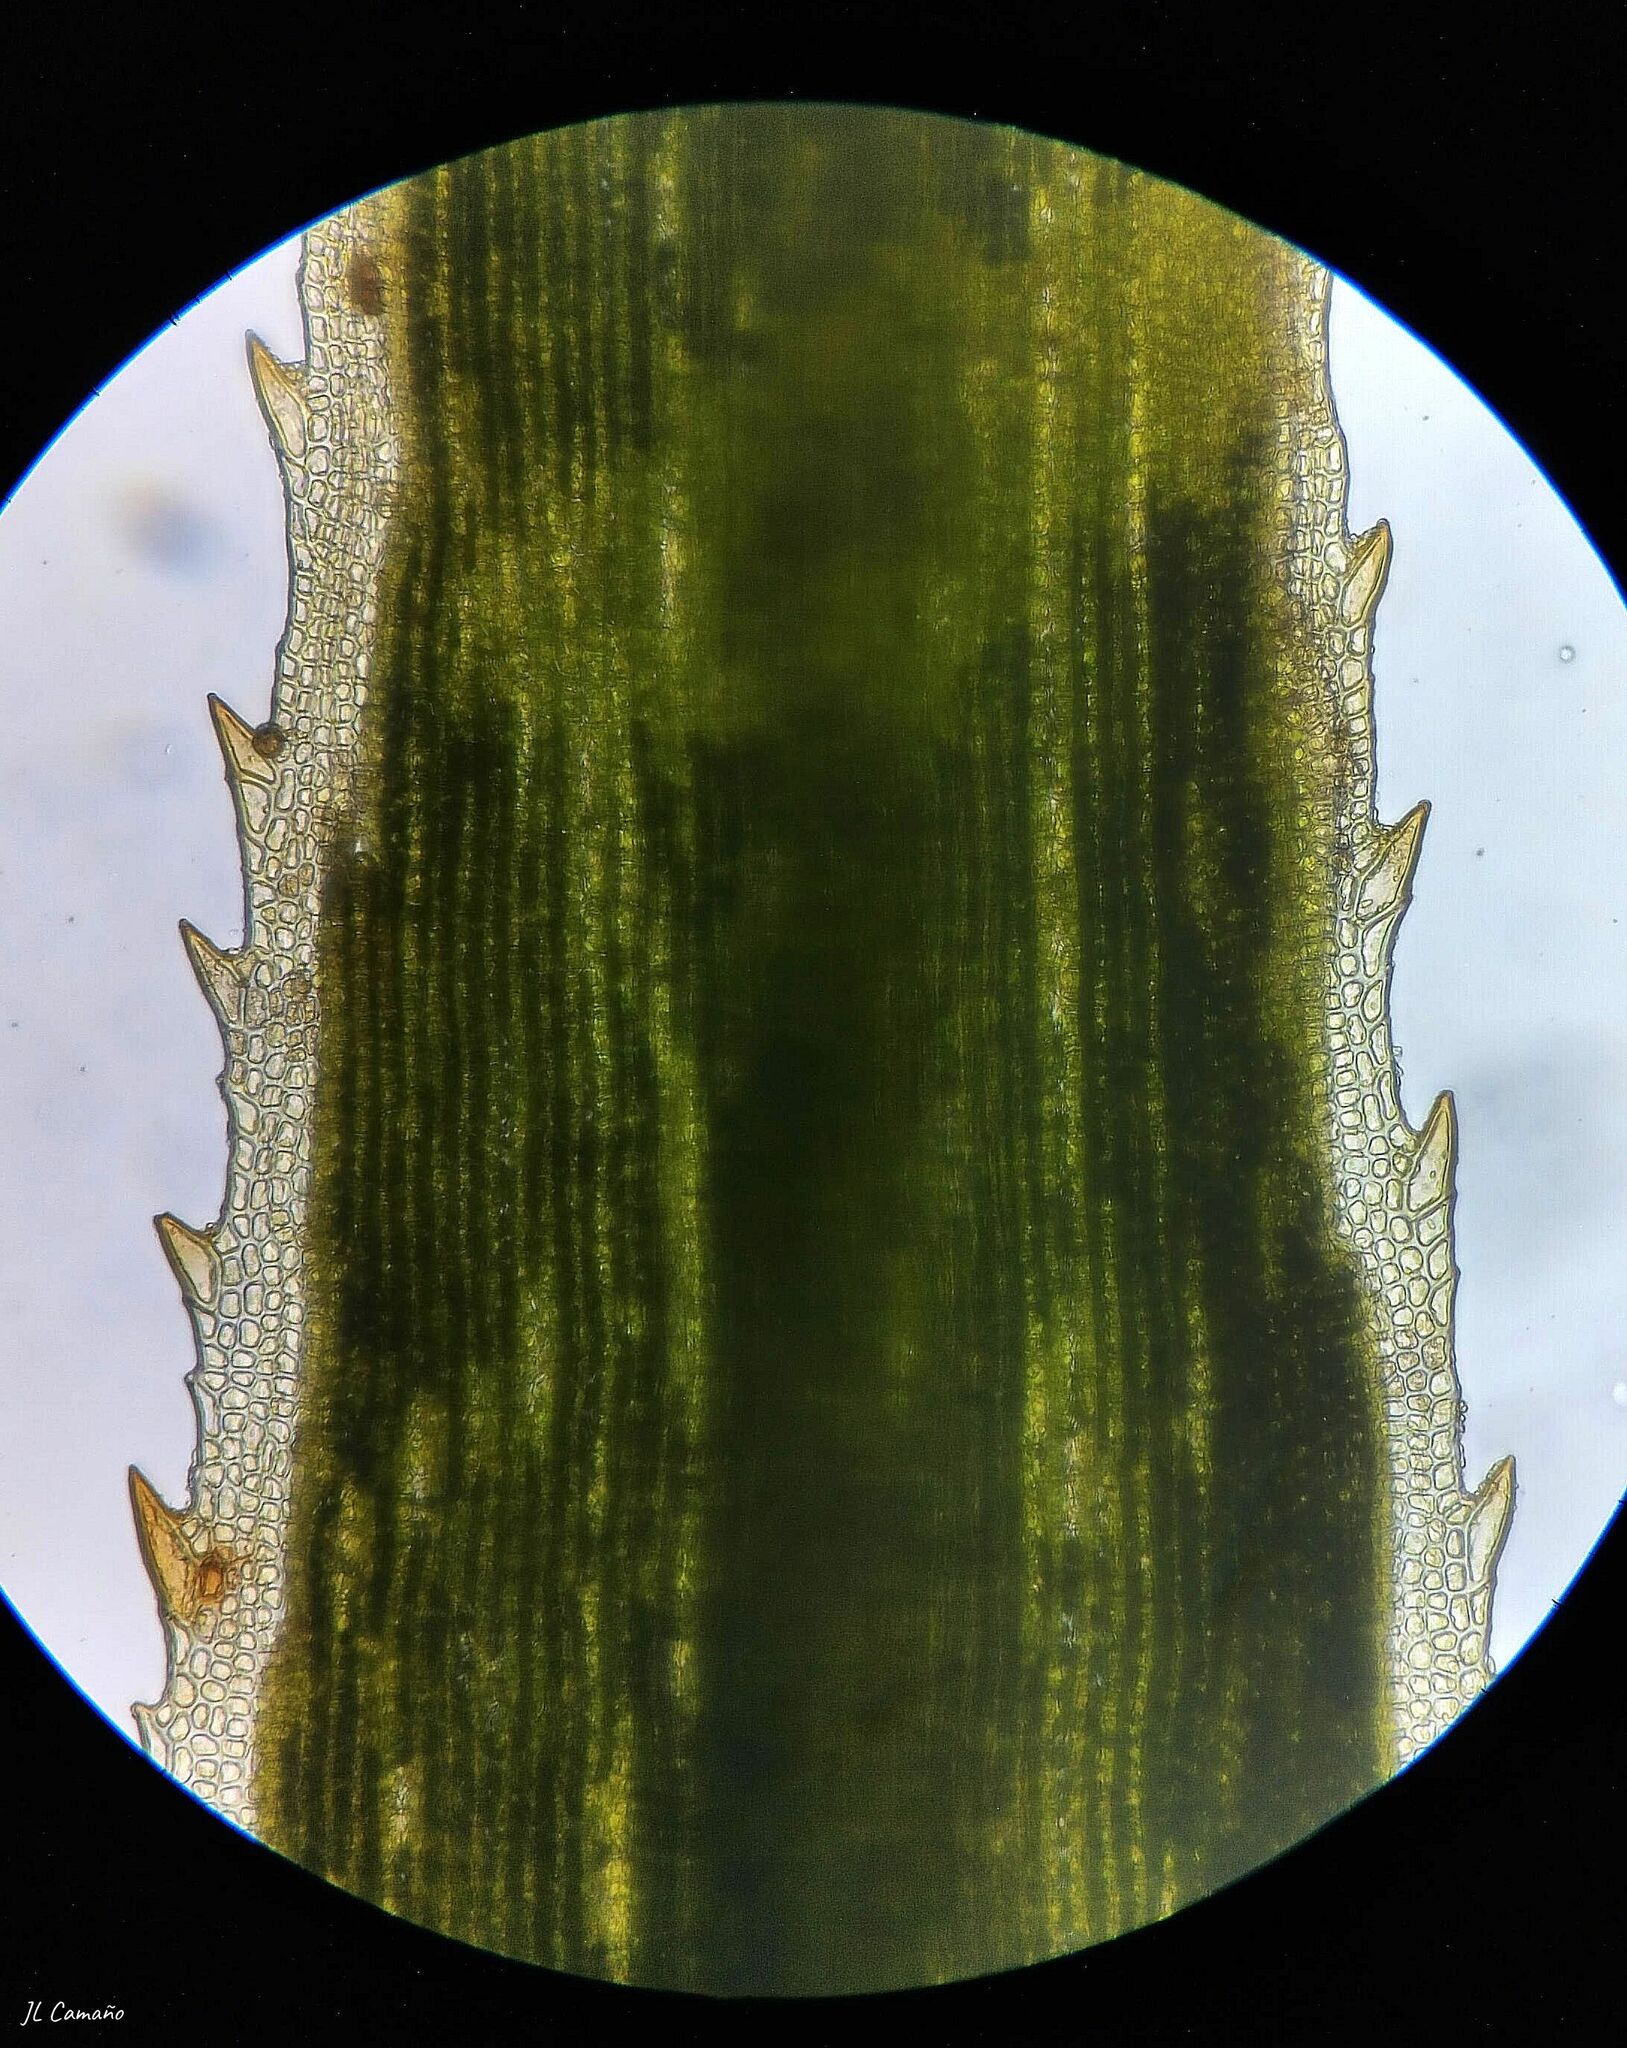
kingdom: Plantae
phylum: Bryophyta
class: Polytrichopsida
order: Polytrichales
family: Polytrichaceae
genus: Polytrichum
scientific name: Polytrichum formosum
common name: Bank haircap moss
